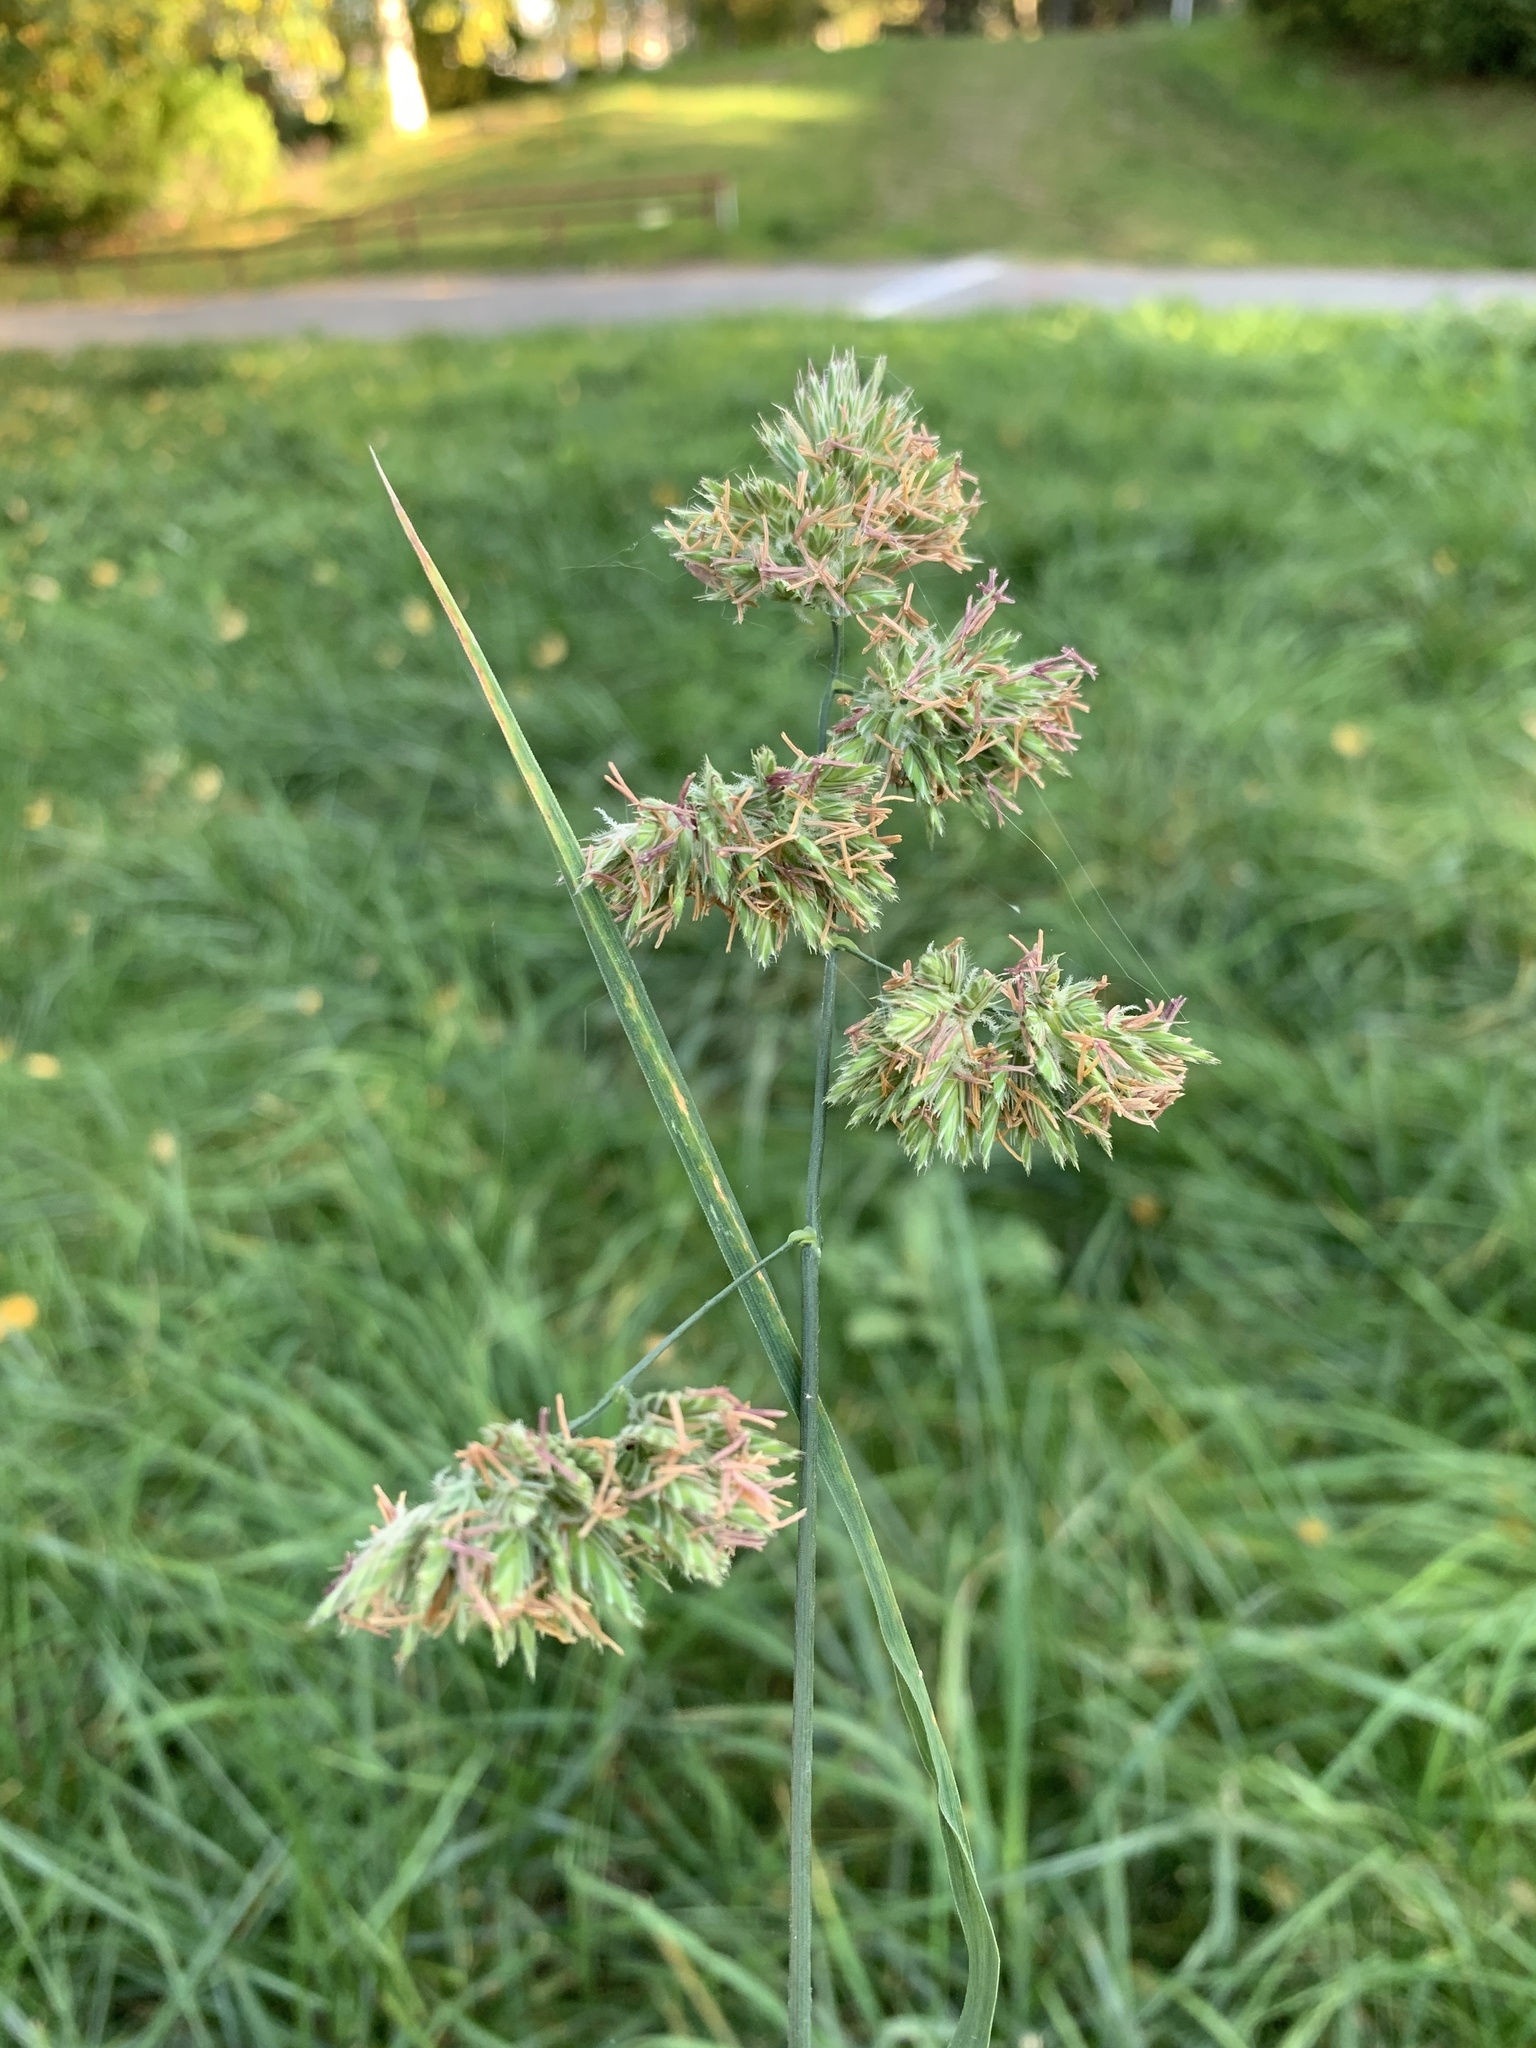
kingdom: Plantae
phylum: Tracheophyta
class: Liliopsida
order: Poales
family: Poaceae
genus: Dactylis
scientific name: Dactylis glomerata
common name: Orchardgrass
